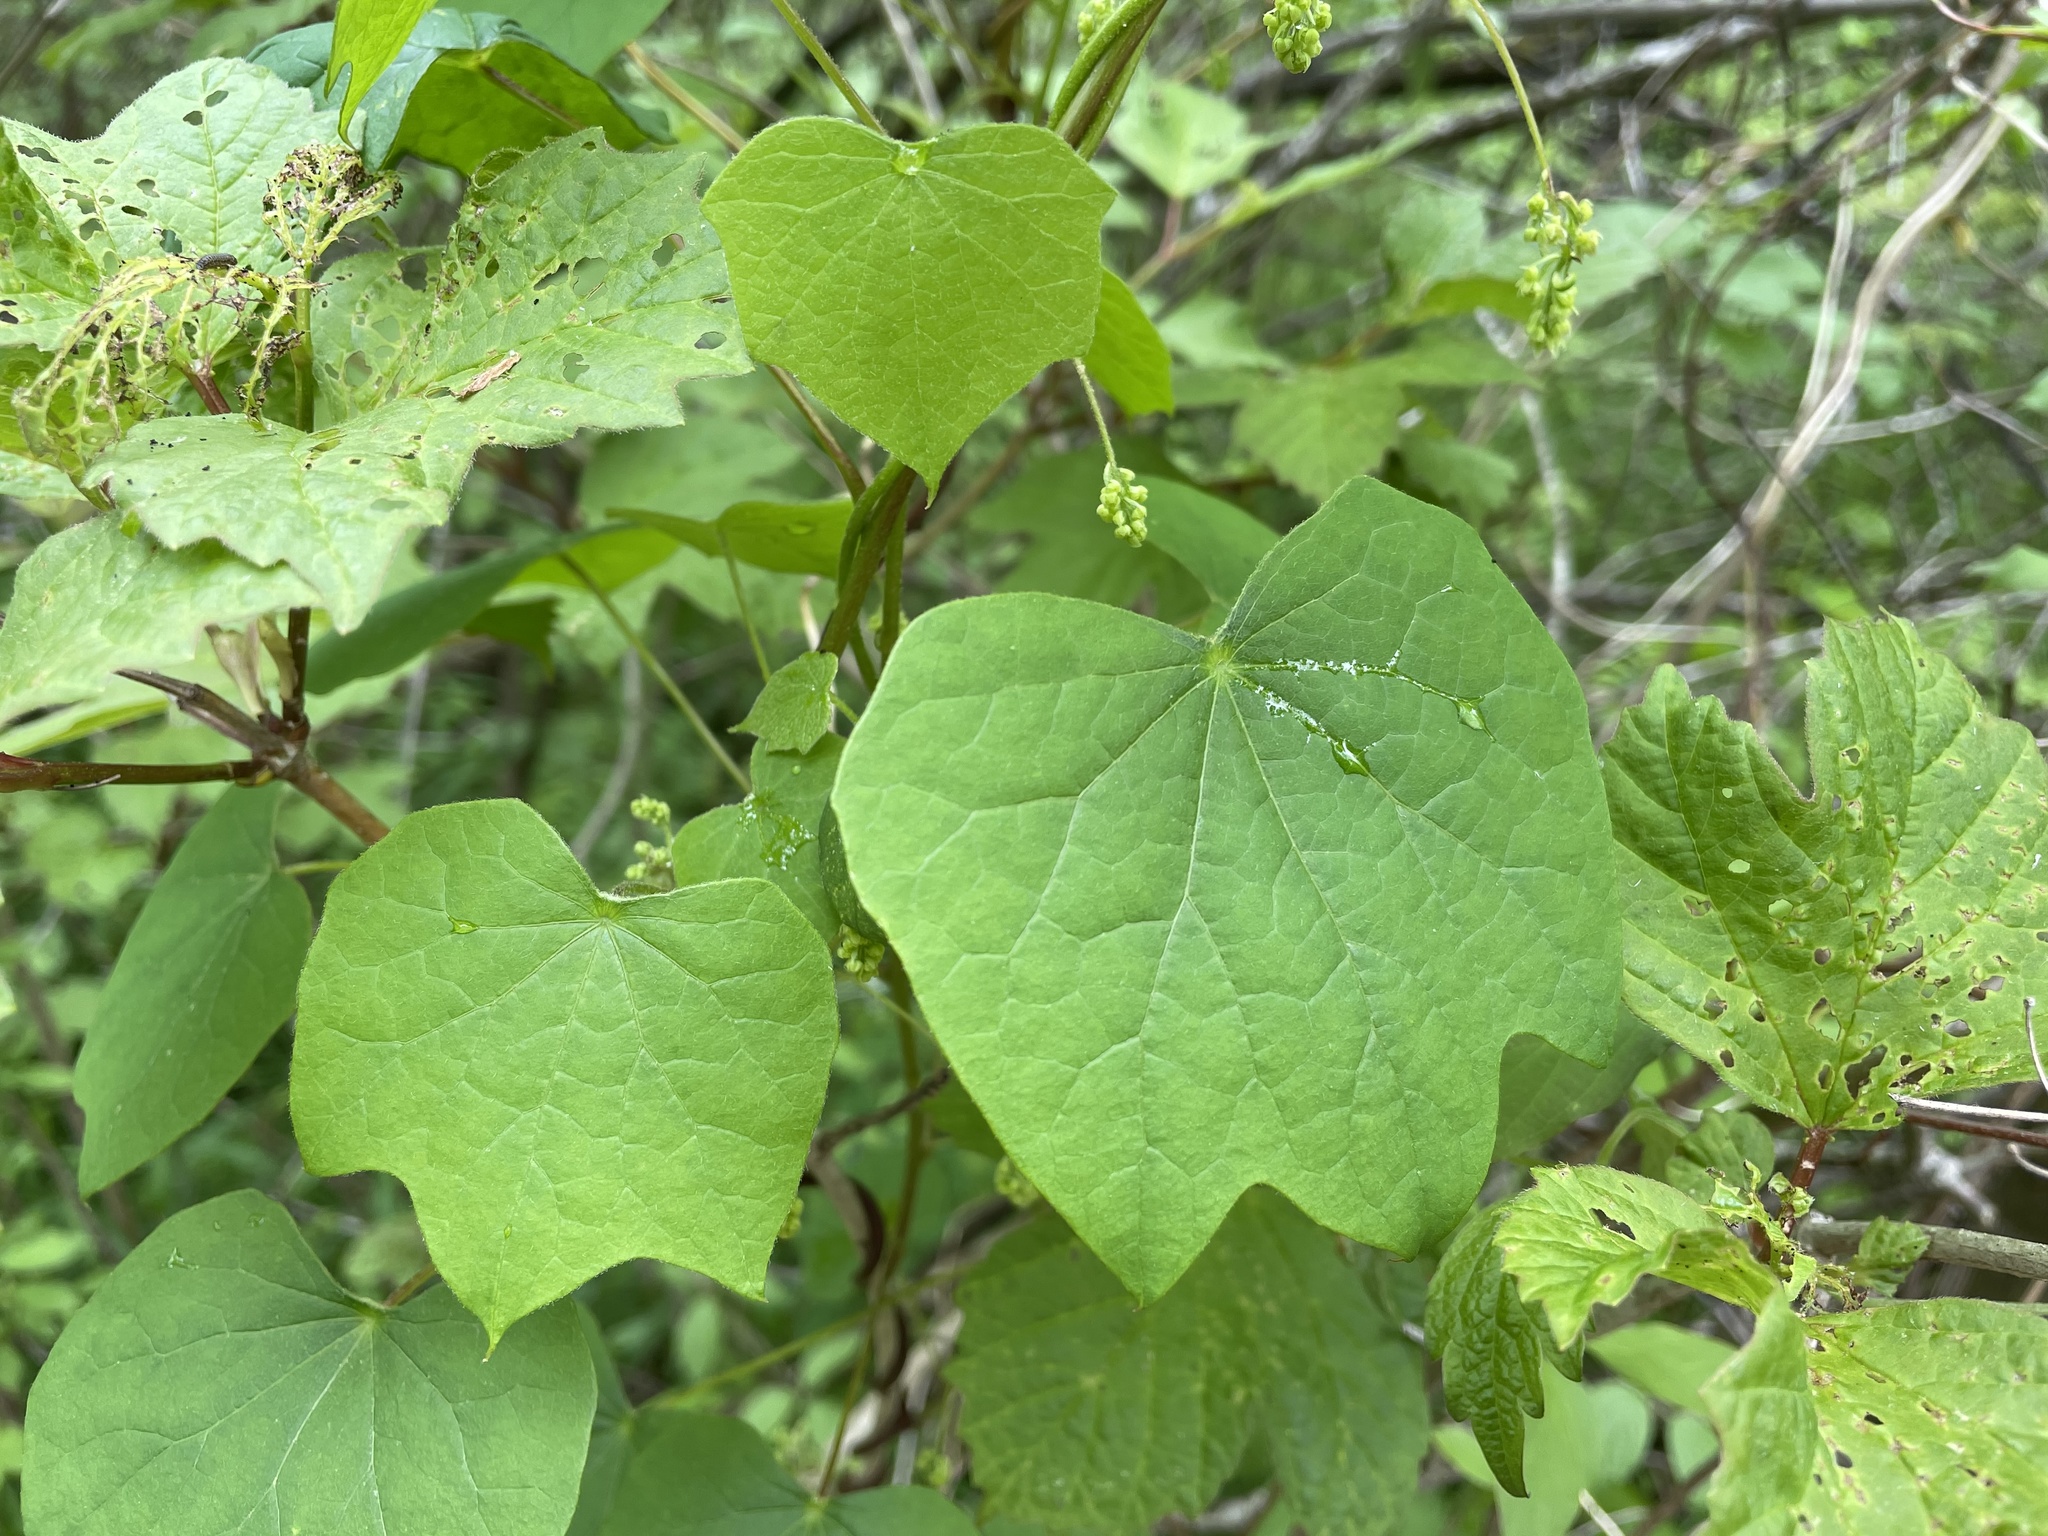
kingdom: Plantae
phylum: Tracheophyta
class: Magnoliopsida
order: Ranunculales
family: Menispermaceae
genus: Menispermum
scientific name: Menispermum canadense
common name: Moonseed
